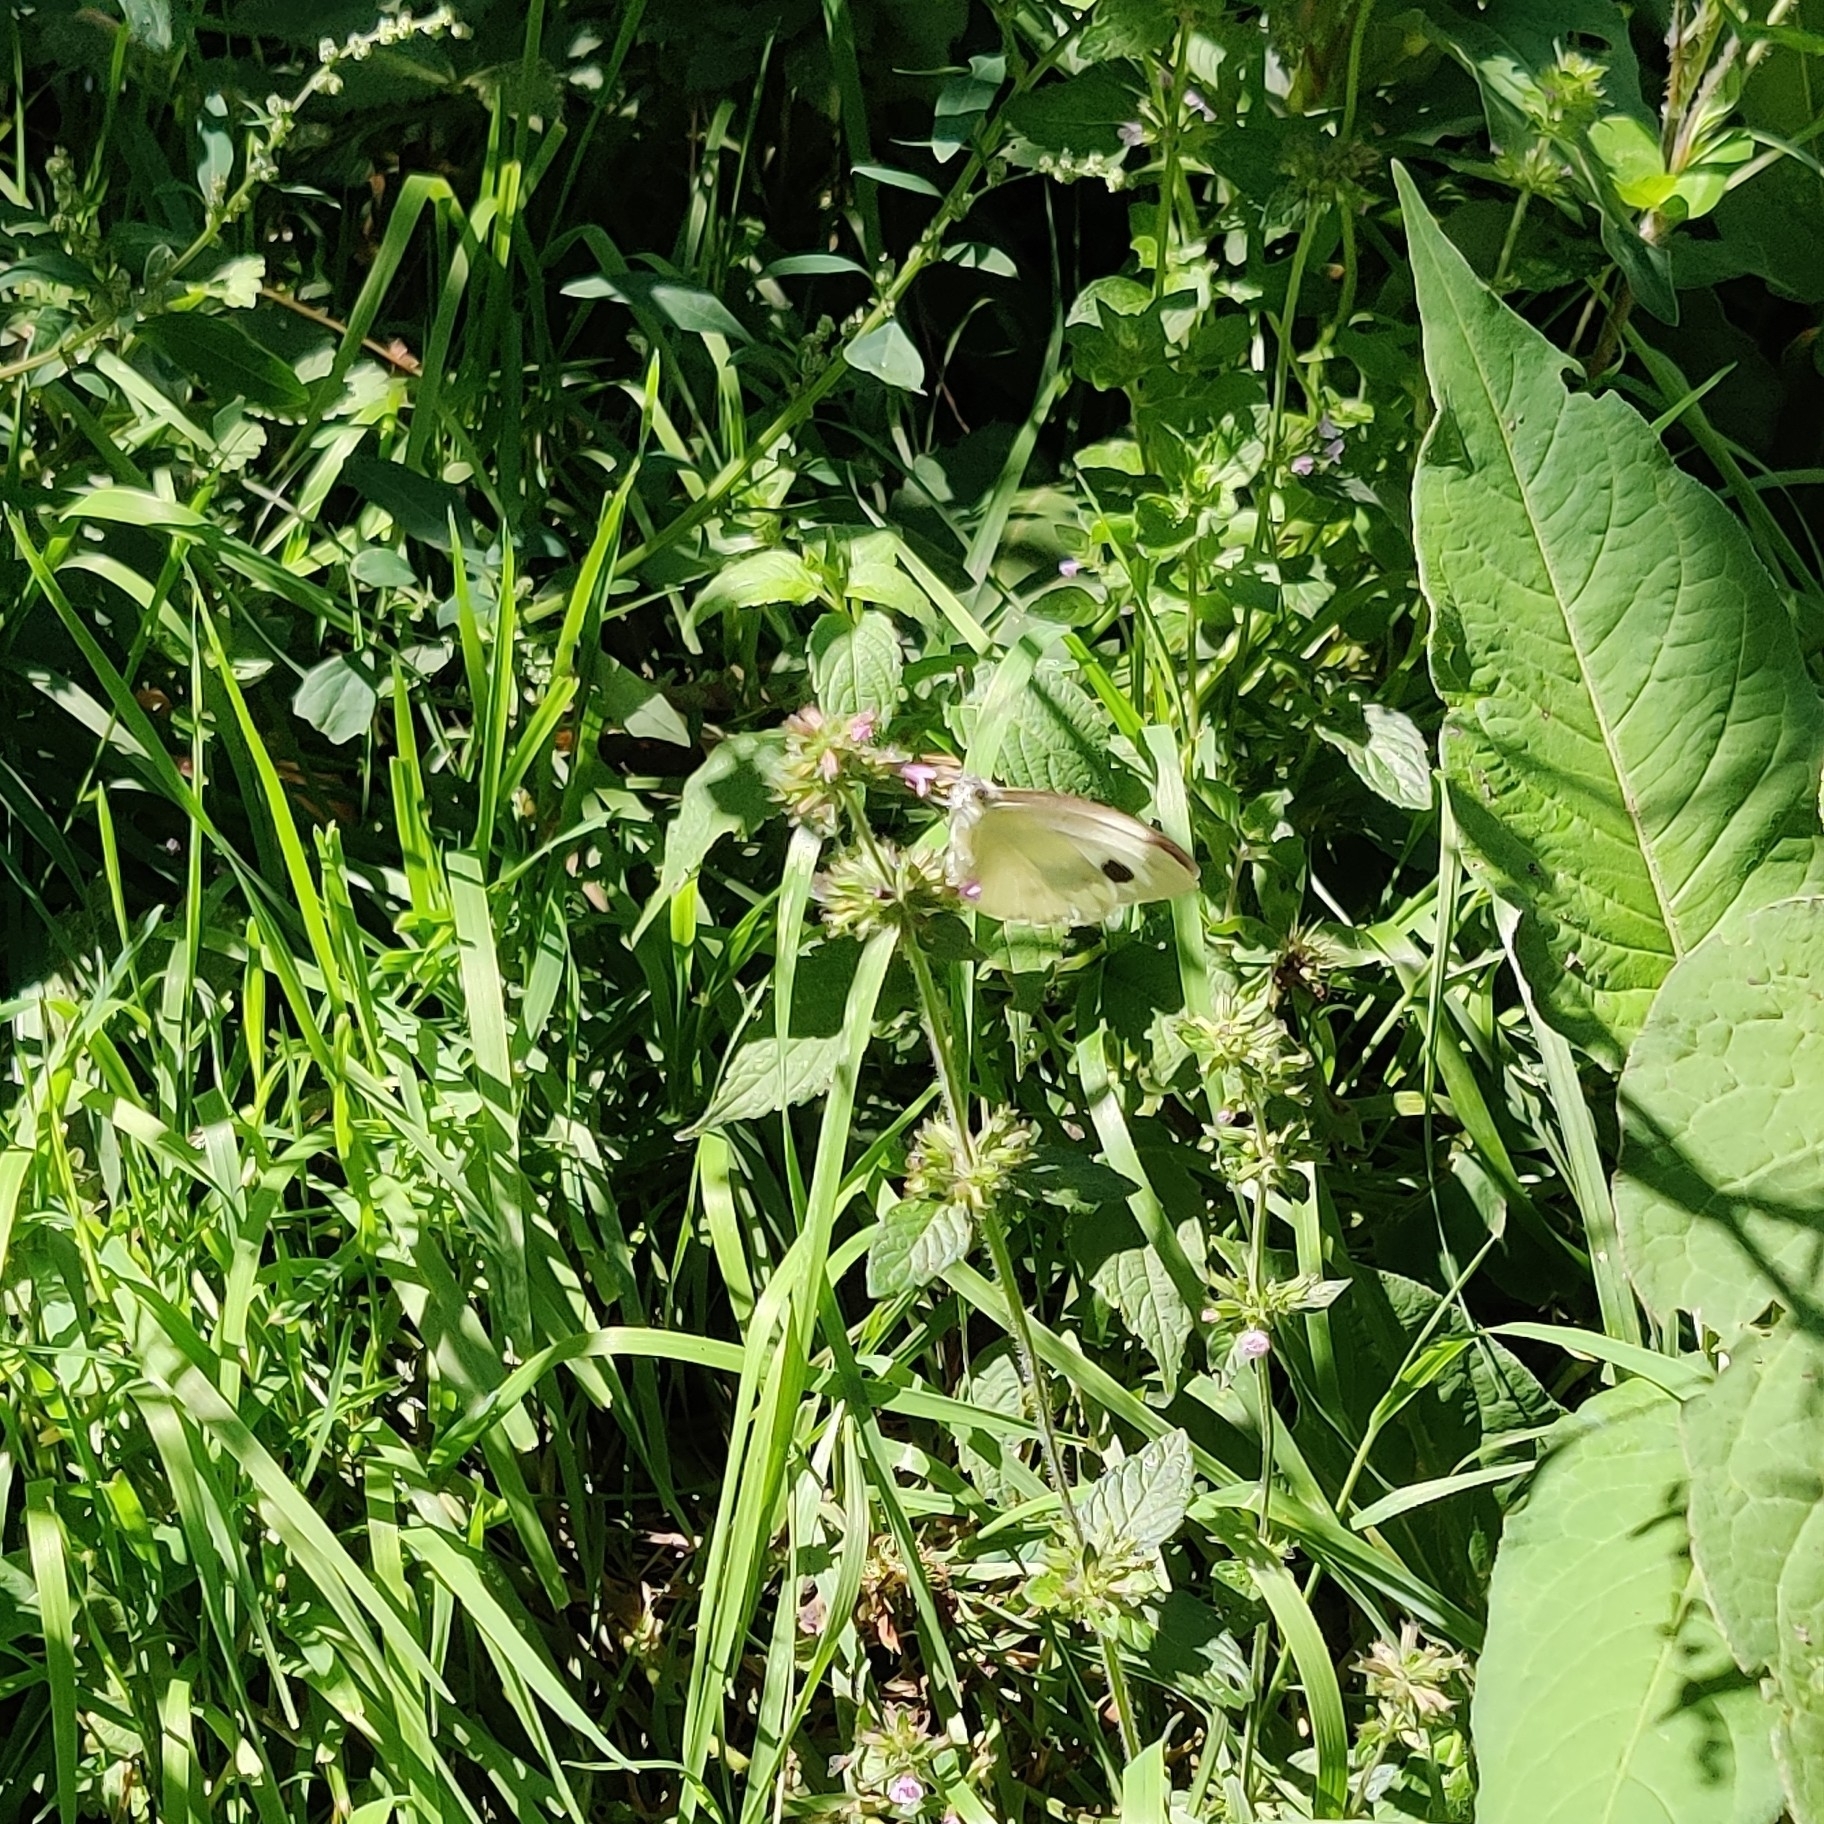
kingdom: Animalia
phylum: Arthropoda
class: Insecta
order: Lepidoptera
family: Pieridae
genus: Pieris
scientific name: Pieris canidia
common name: Indian cabbage white
